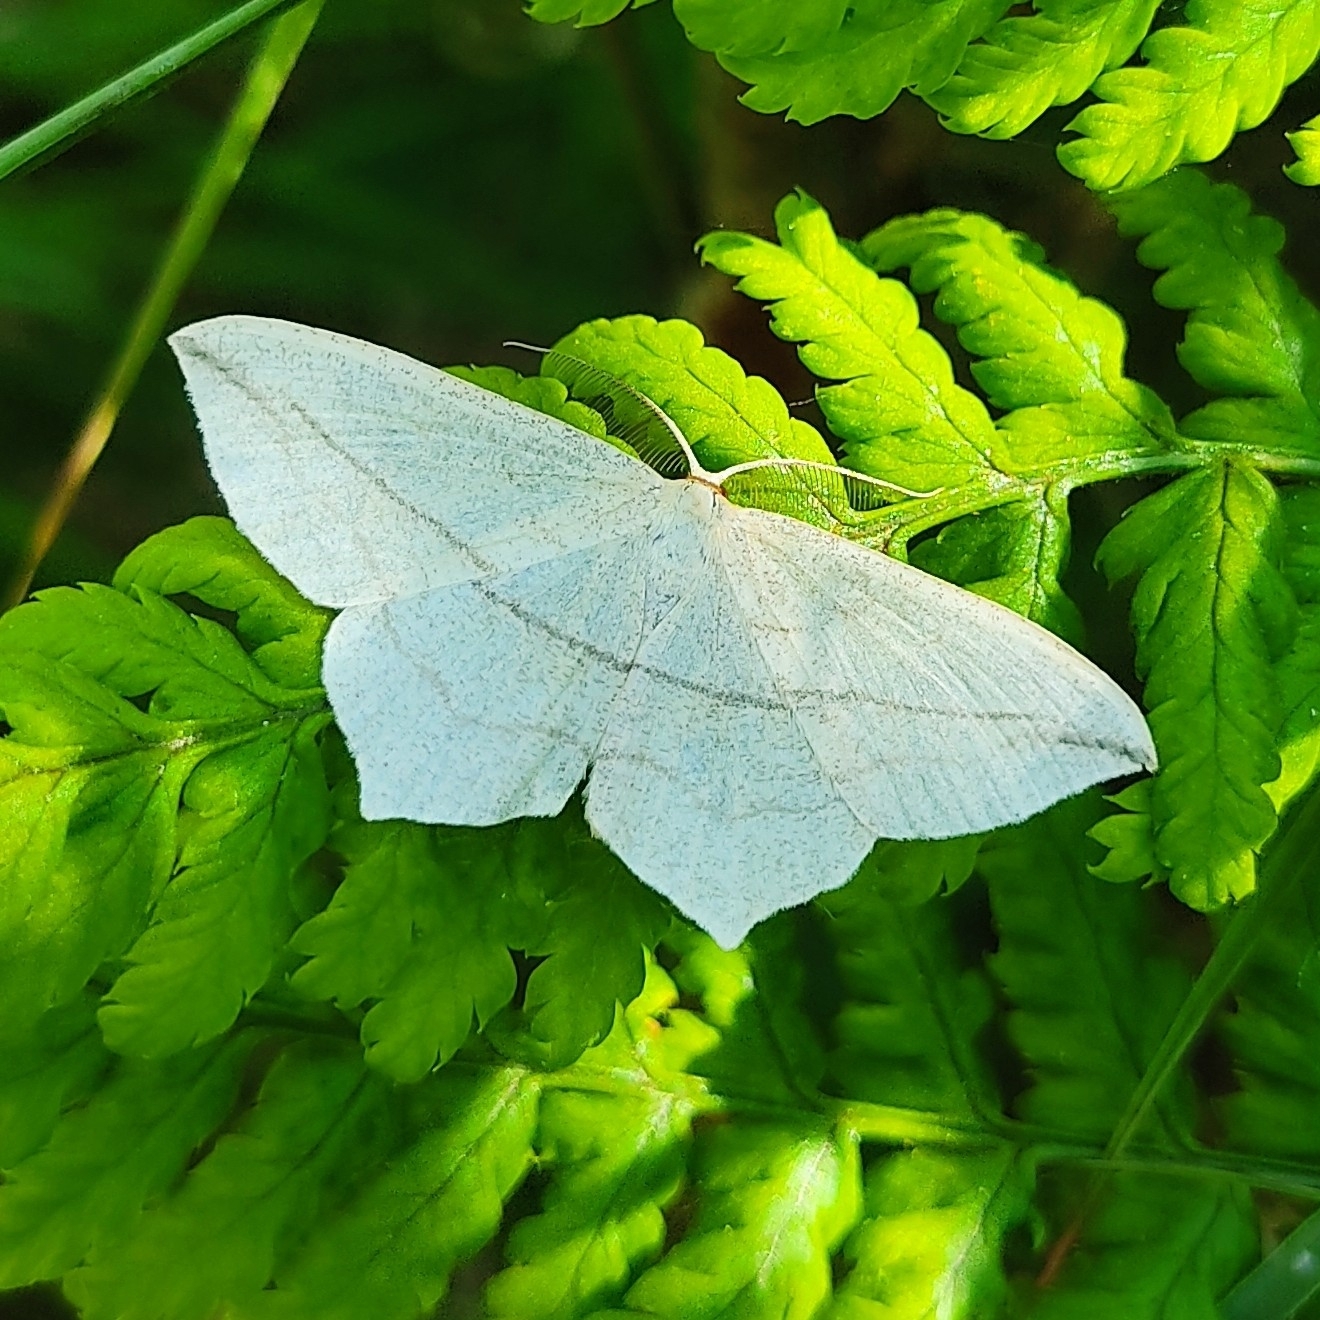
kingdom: Animalia
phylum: Arthropoda
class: Insecta
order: Lepidoptera
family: Geometridae
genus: Timandra
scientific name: Timandra comae
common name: Blood-vein
